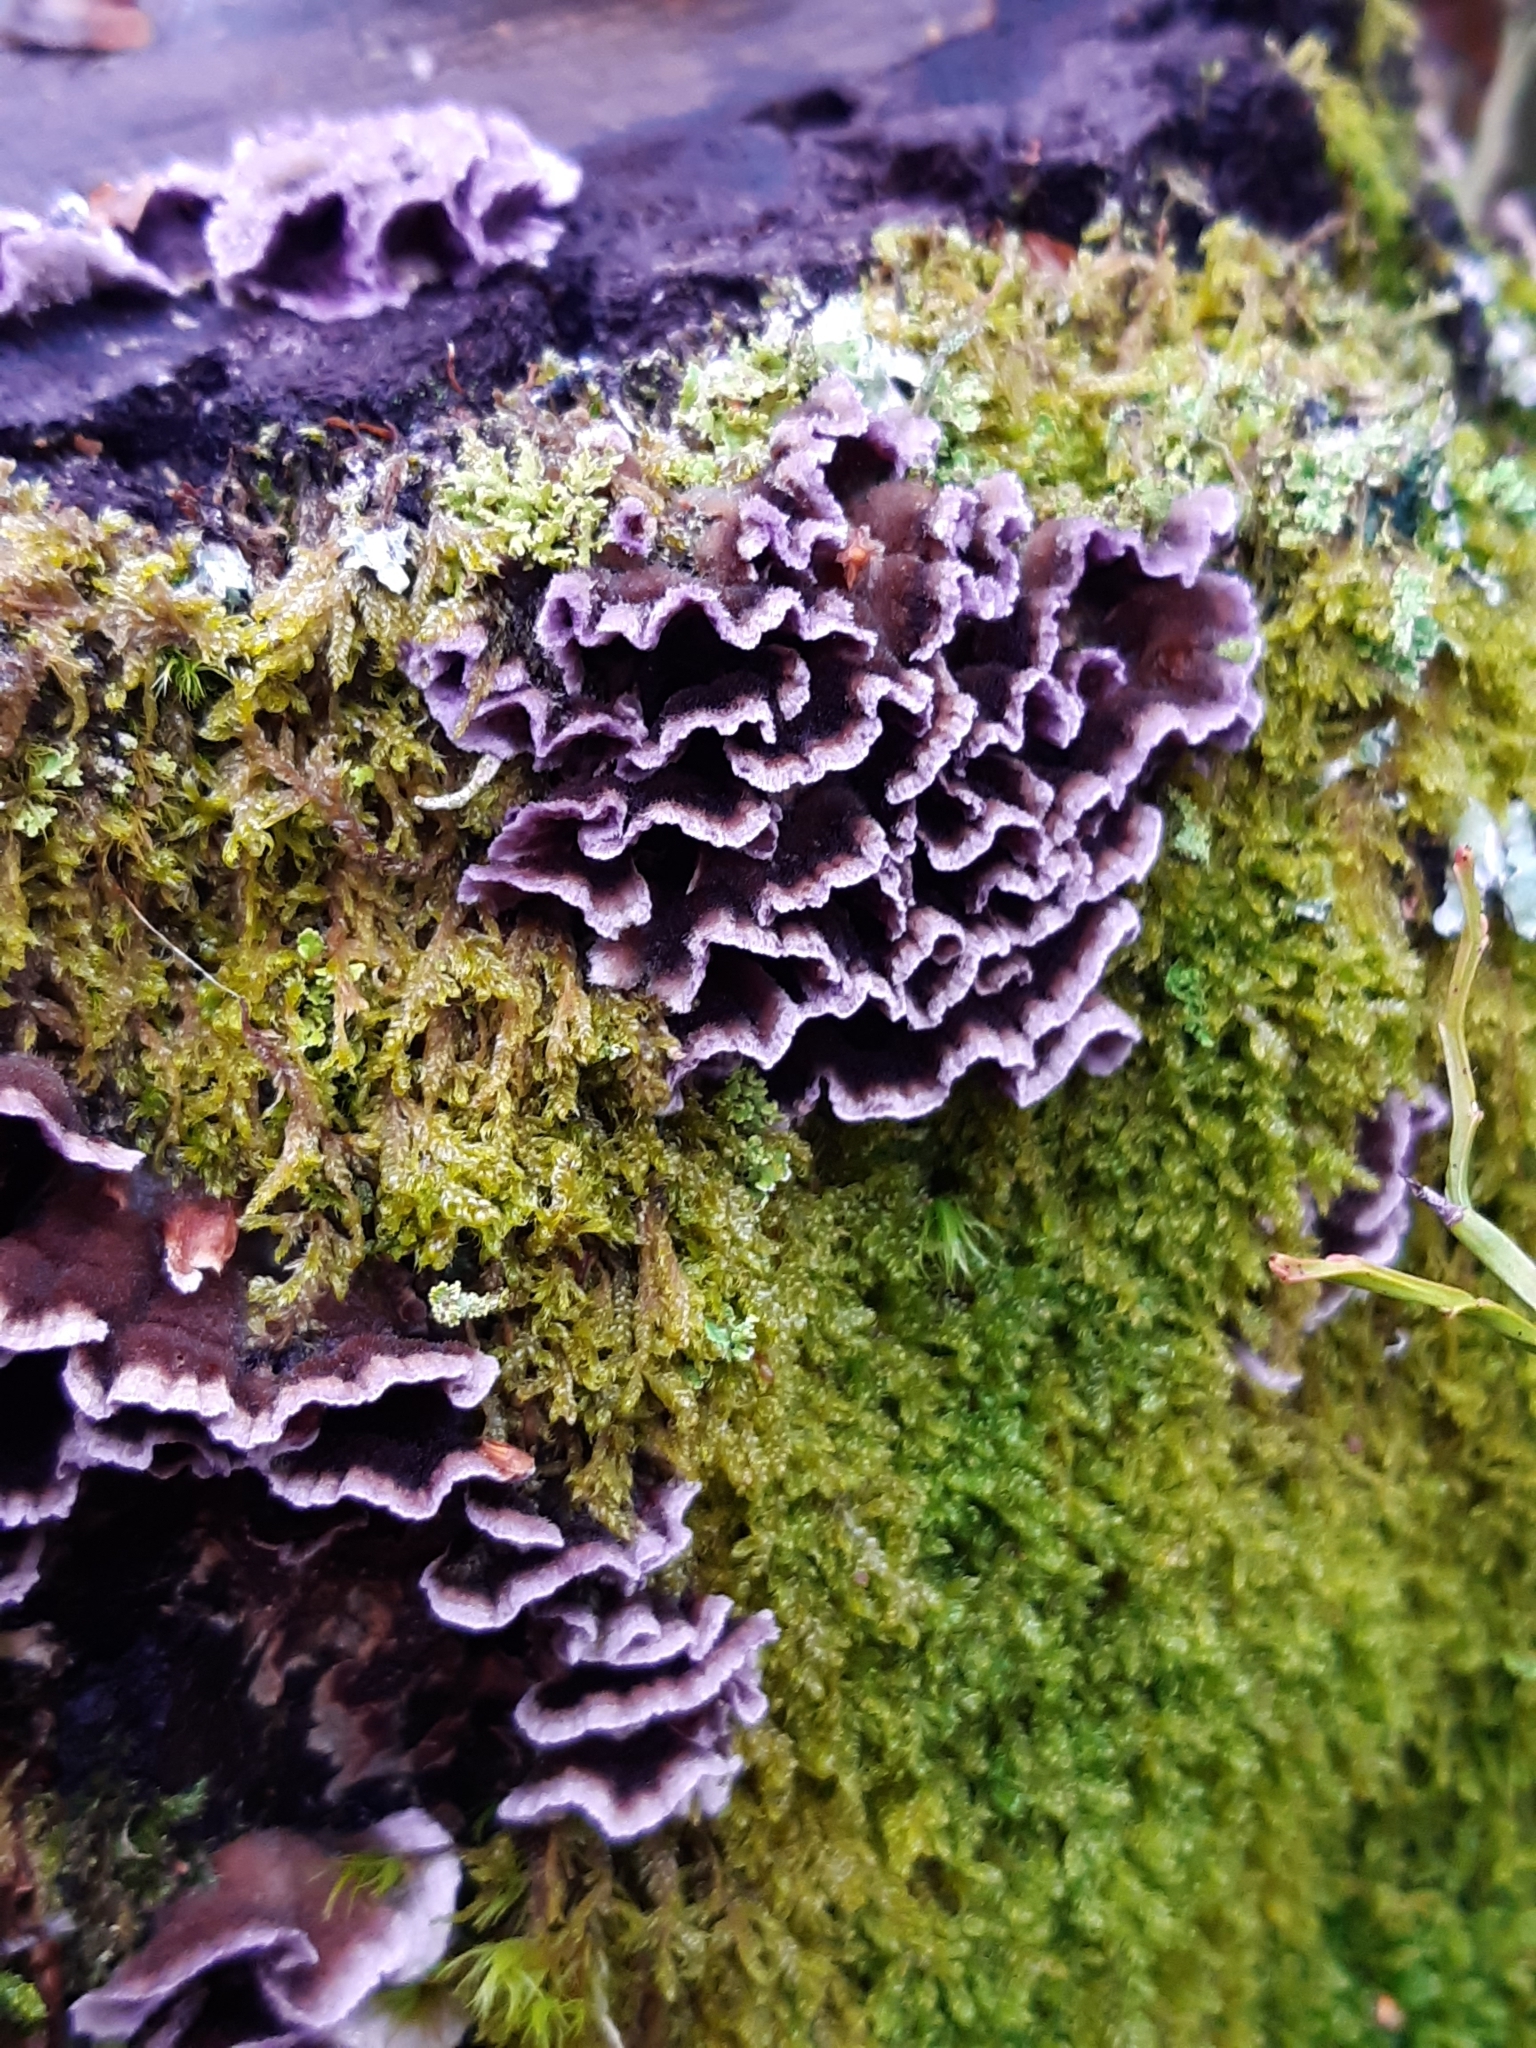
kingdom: Fungi
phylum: Basidiomycota
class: Agaricomycetes
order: Agaricales
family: Cyphellaceae
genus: Chondrostereum
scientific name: Chondrostereum purpureum
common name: Silver leaf disease
